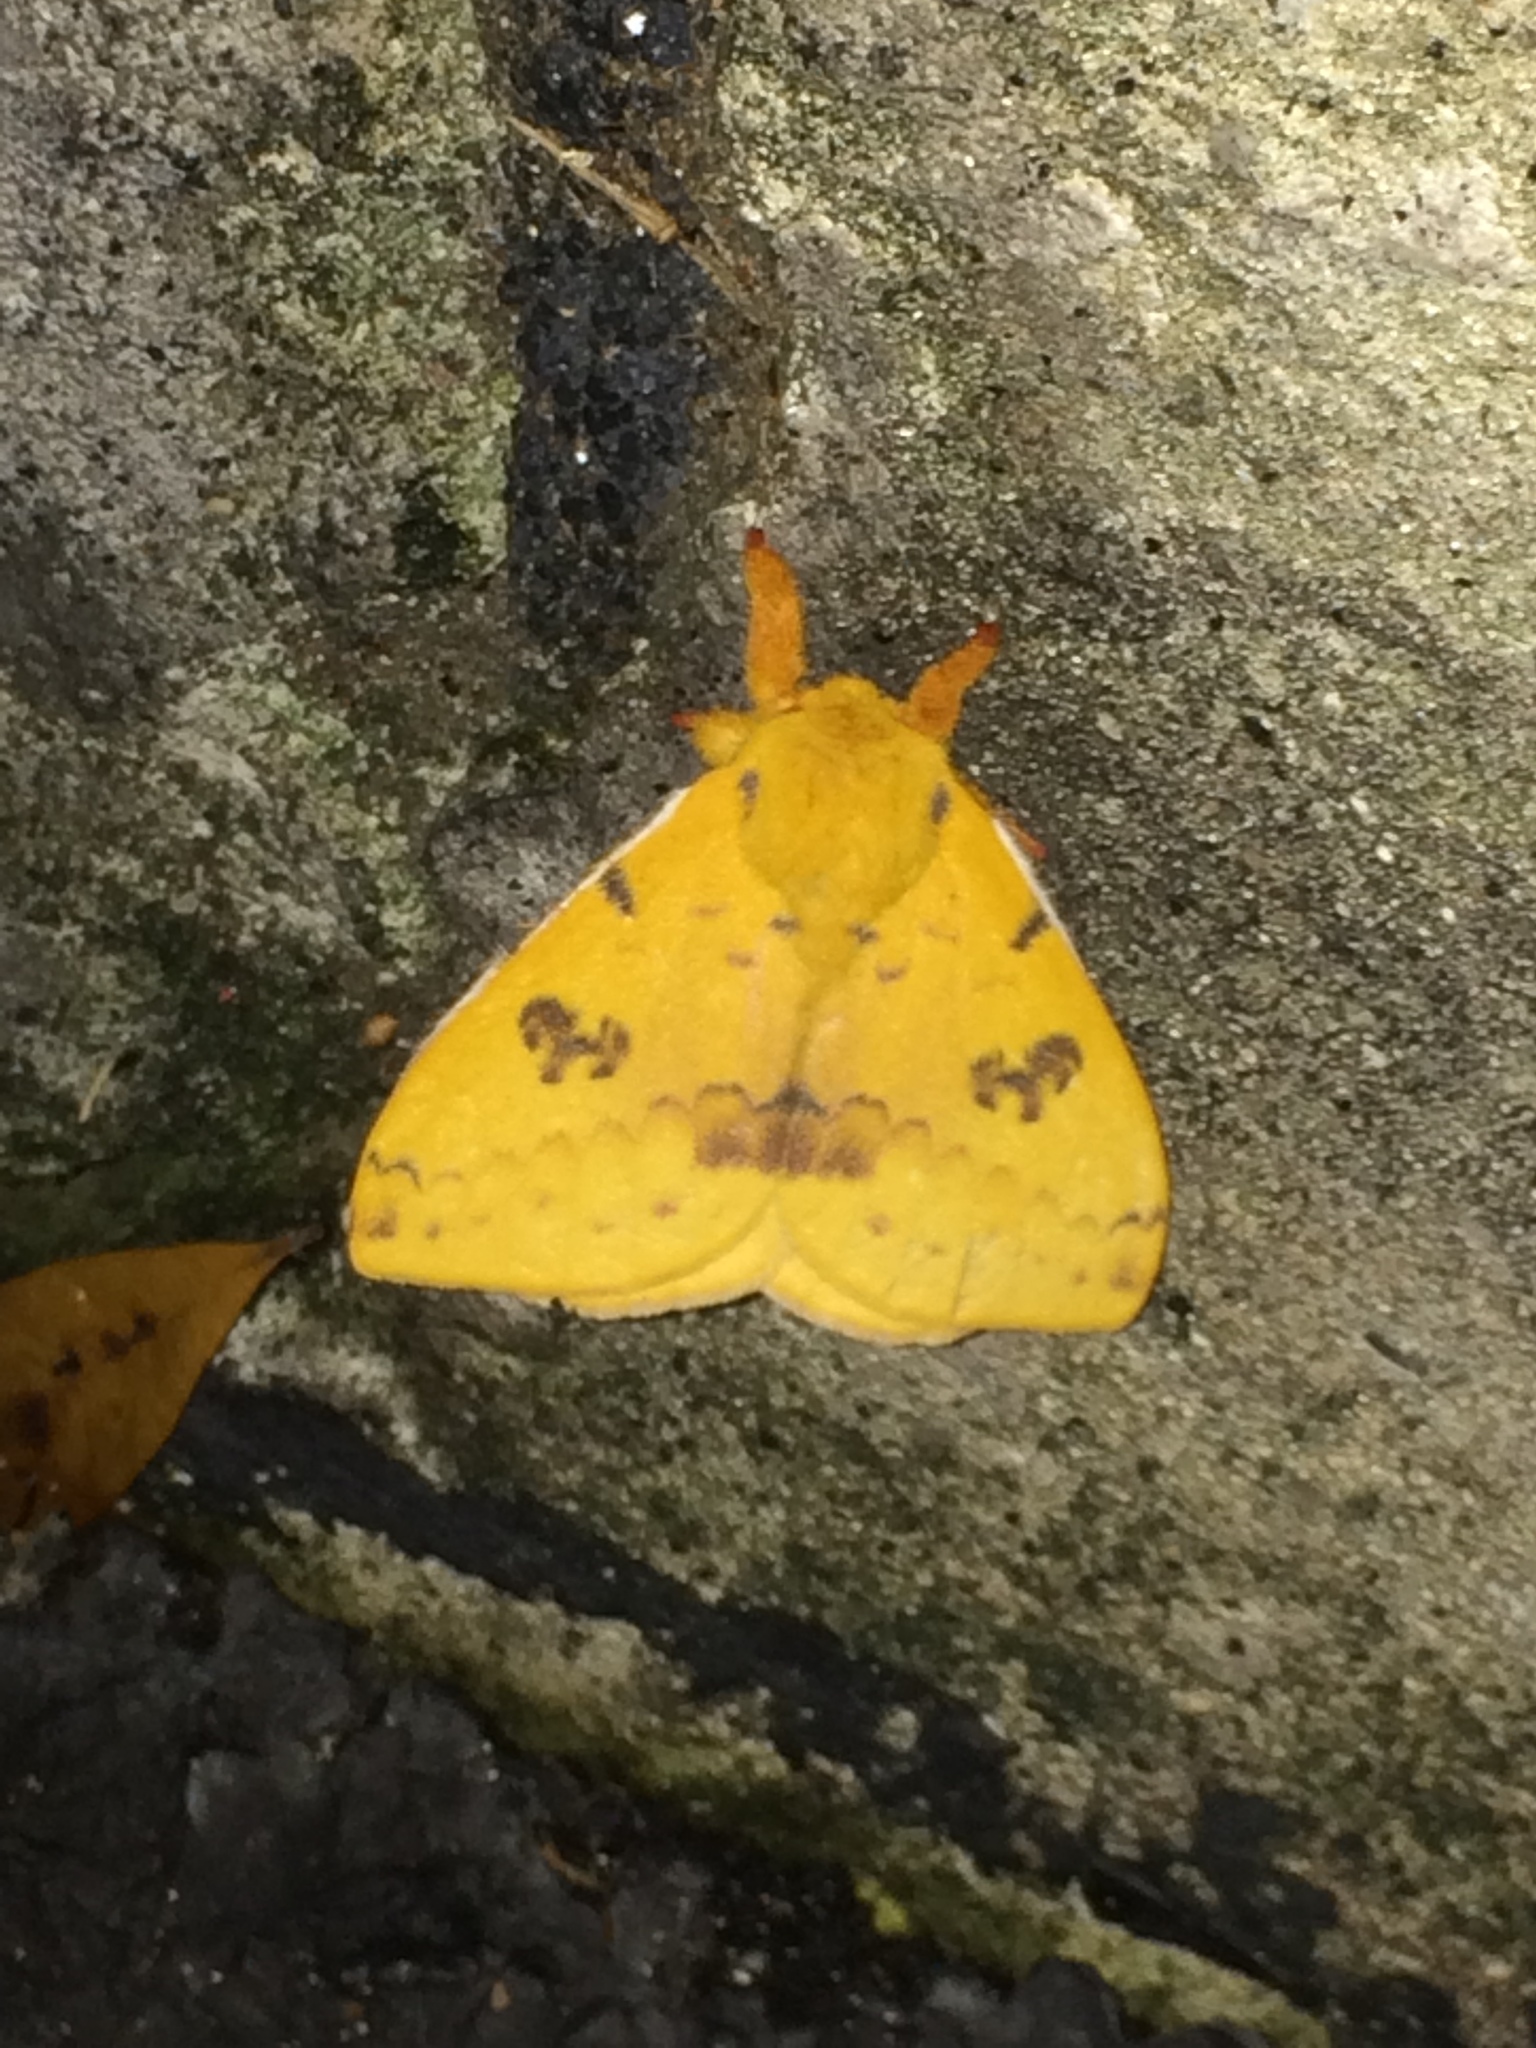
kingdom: Animalia
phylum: Arthropoda
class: Insecta
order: Lepidoptera
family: Saturniidae
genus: Automeris
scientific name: Automeris io
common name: Io moth
